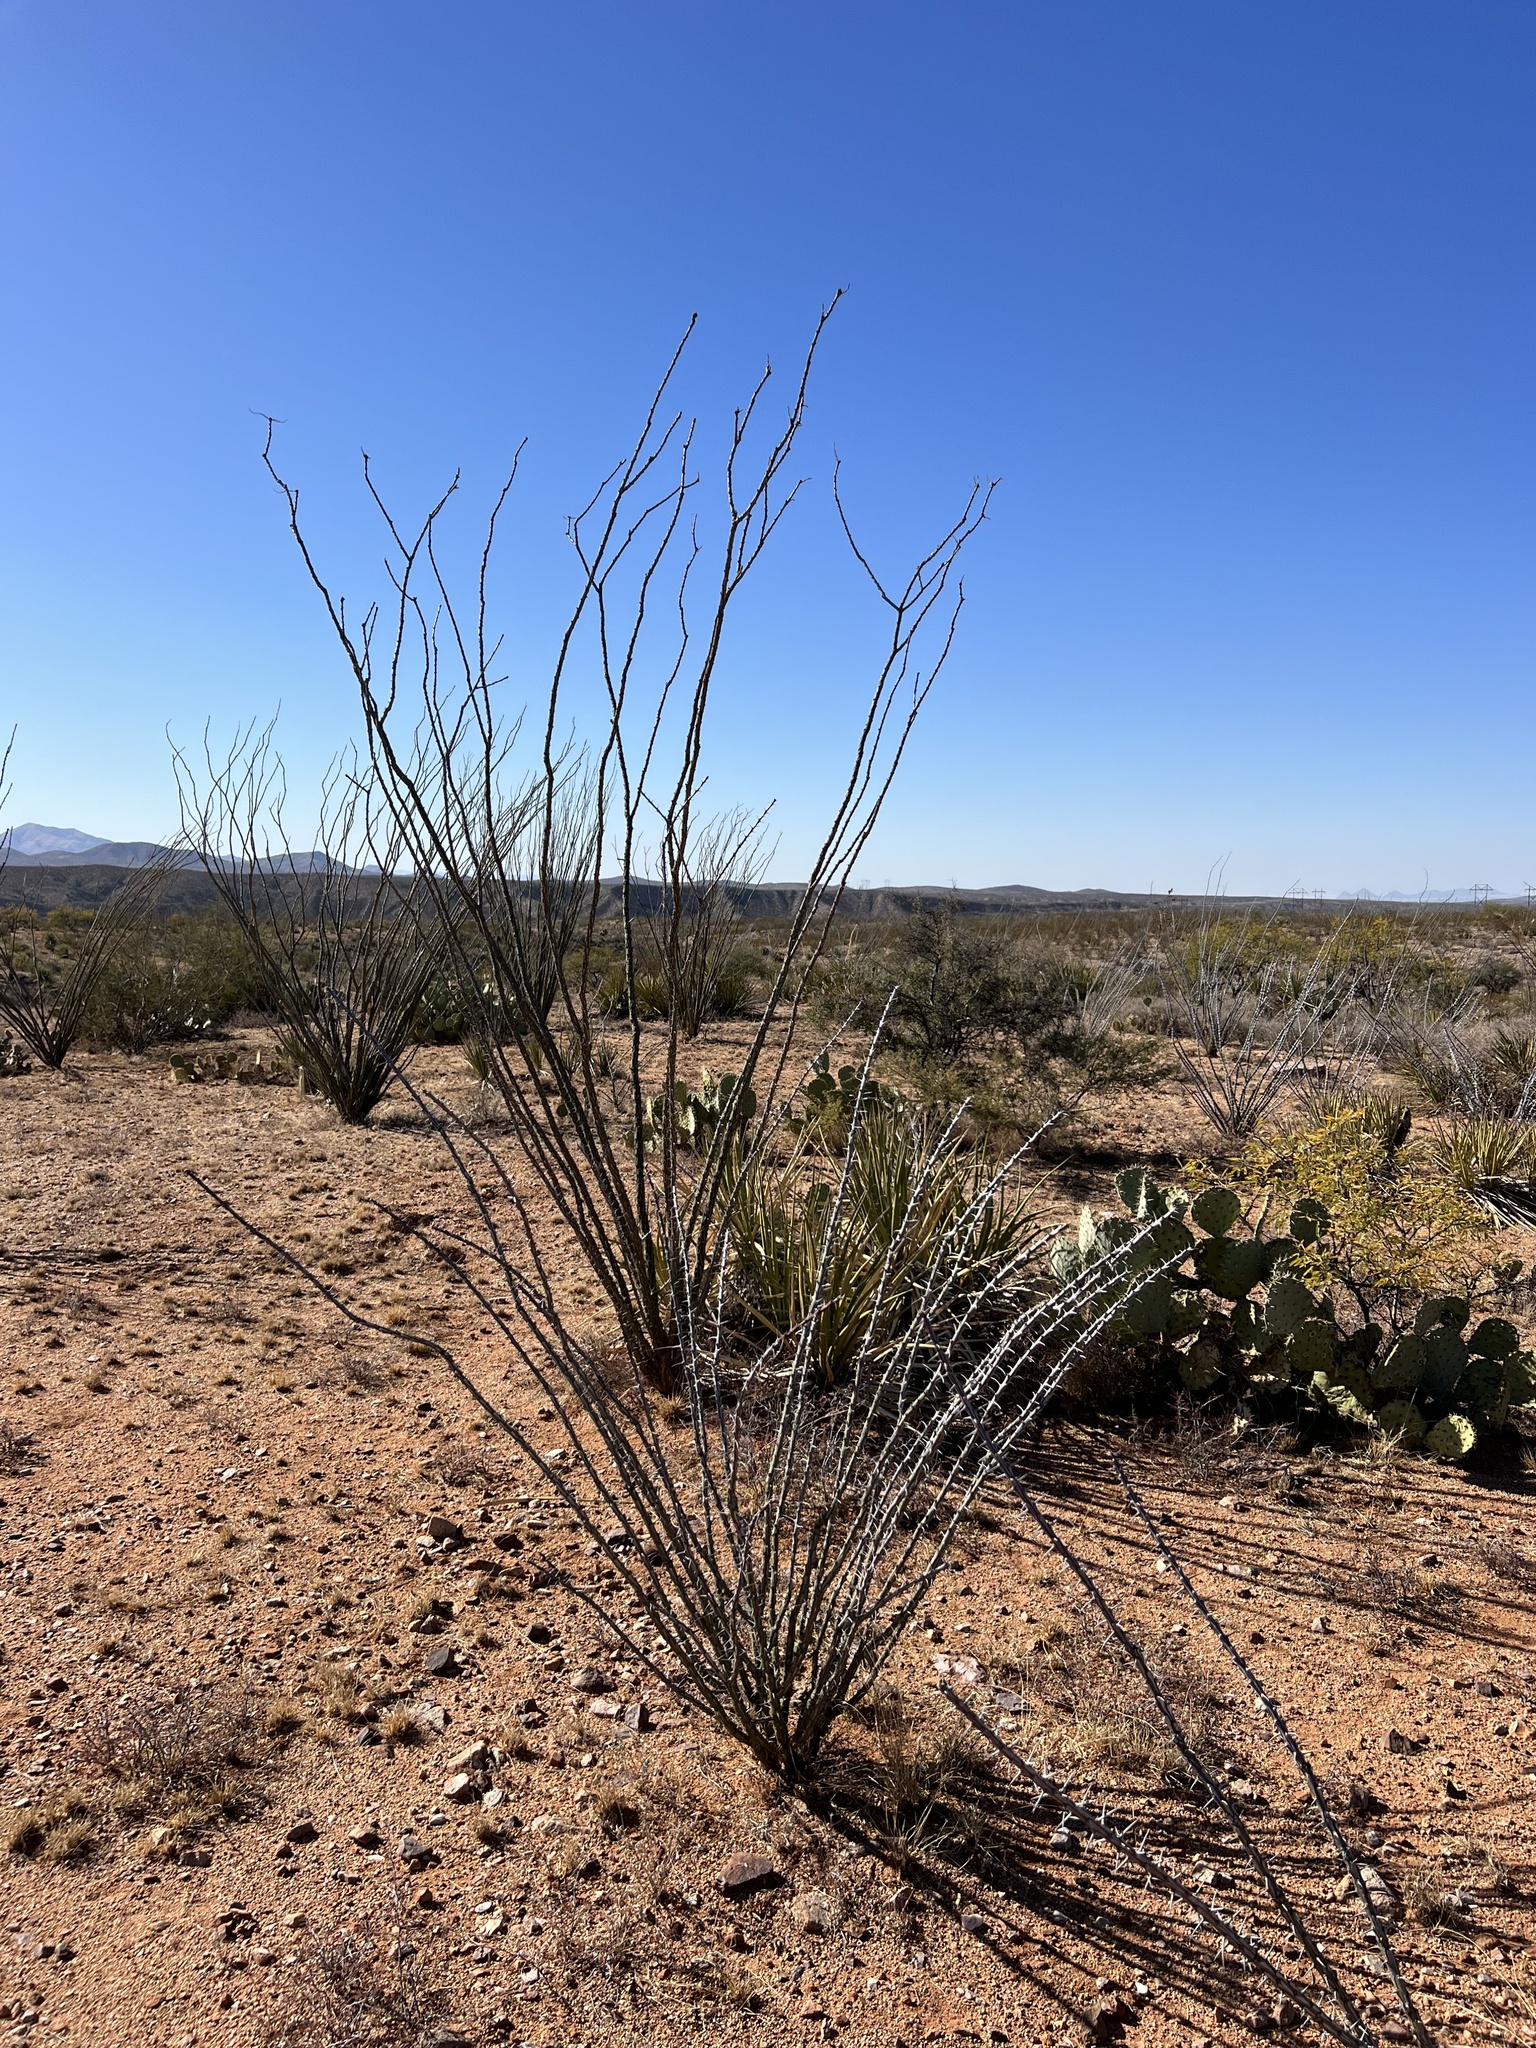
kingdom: Plantae
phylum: Tracheophyta
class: Magnoliopsida
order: Ericales
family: Fouquieriaceae
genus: Fouquieria
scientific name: Fouquieria splendens
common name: Vine-cactus
